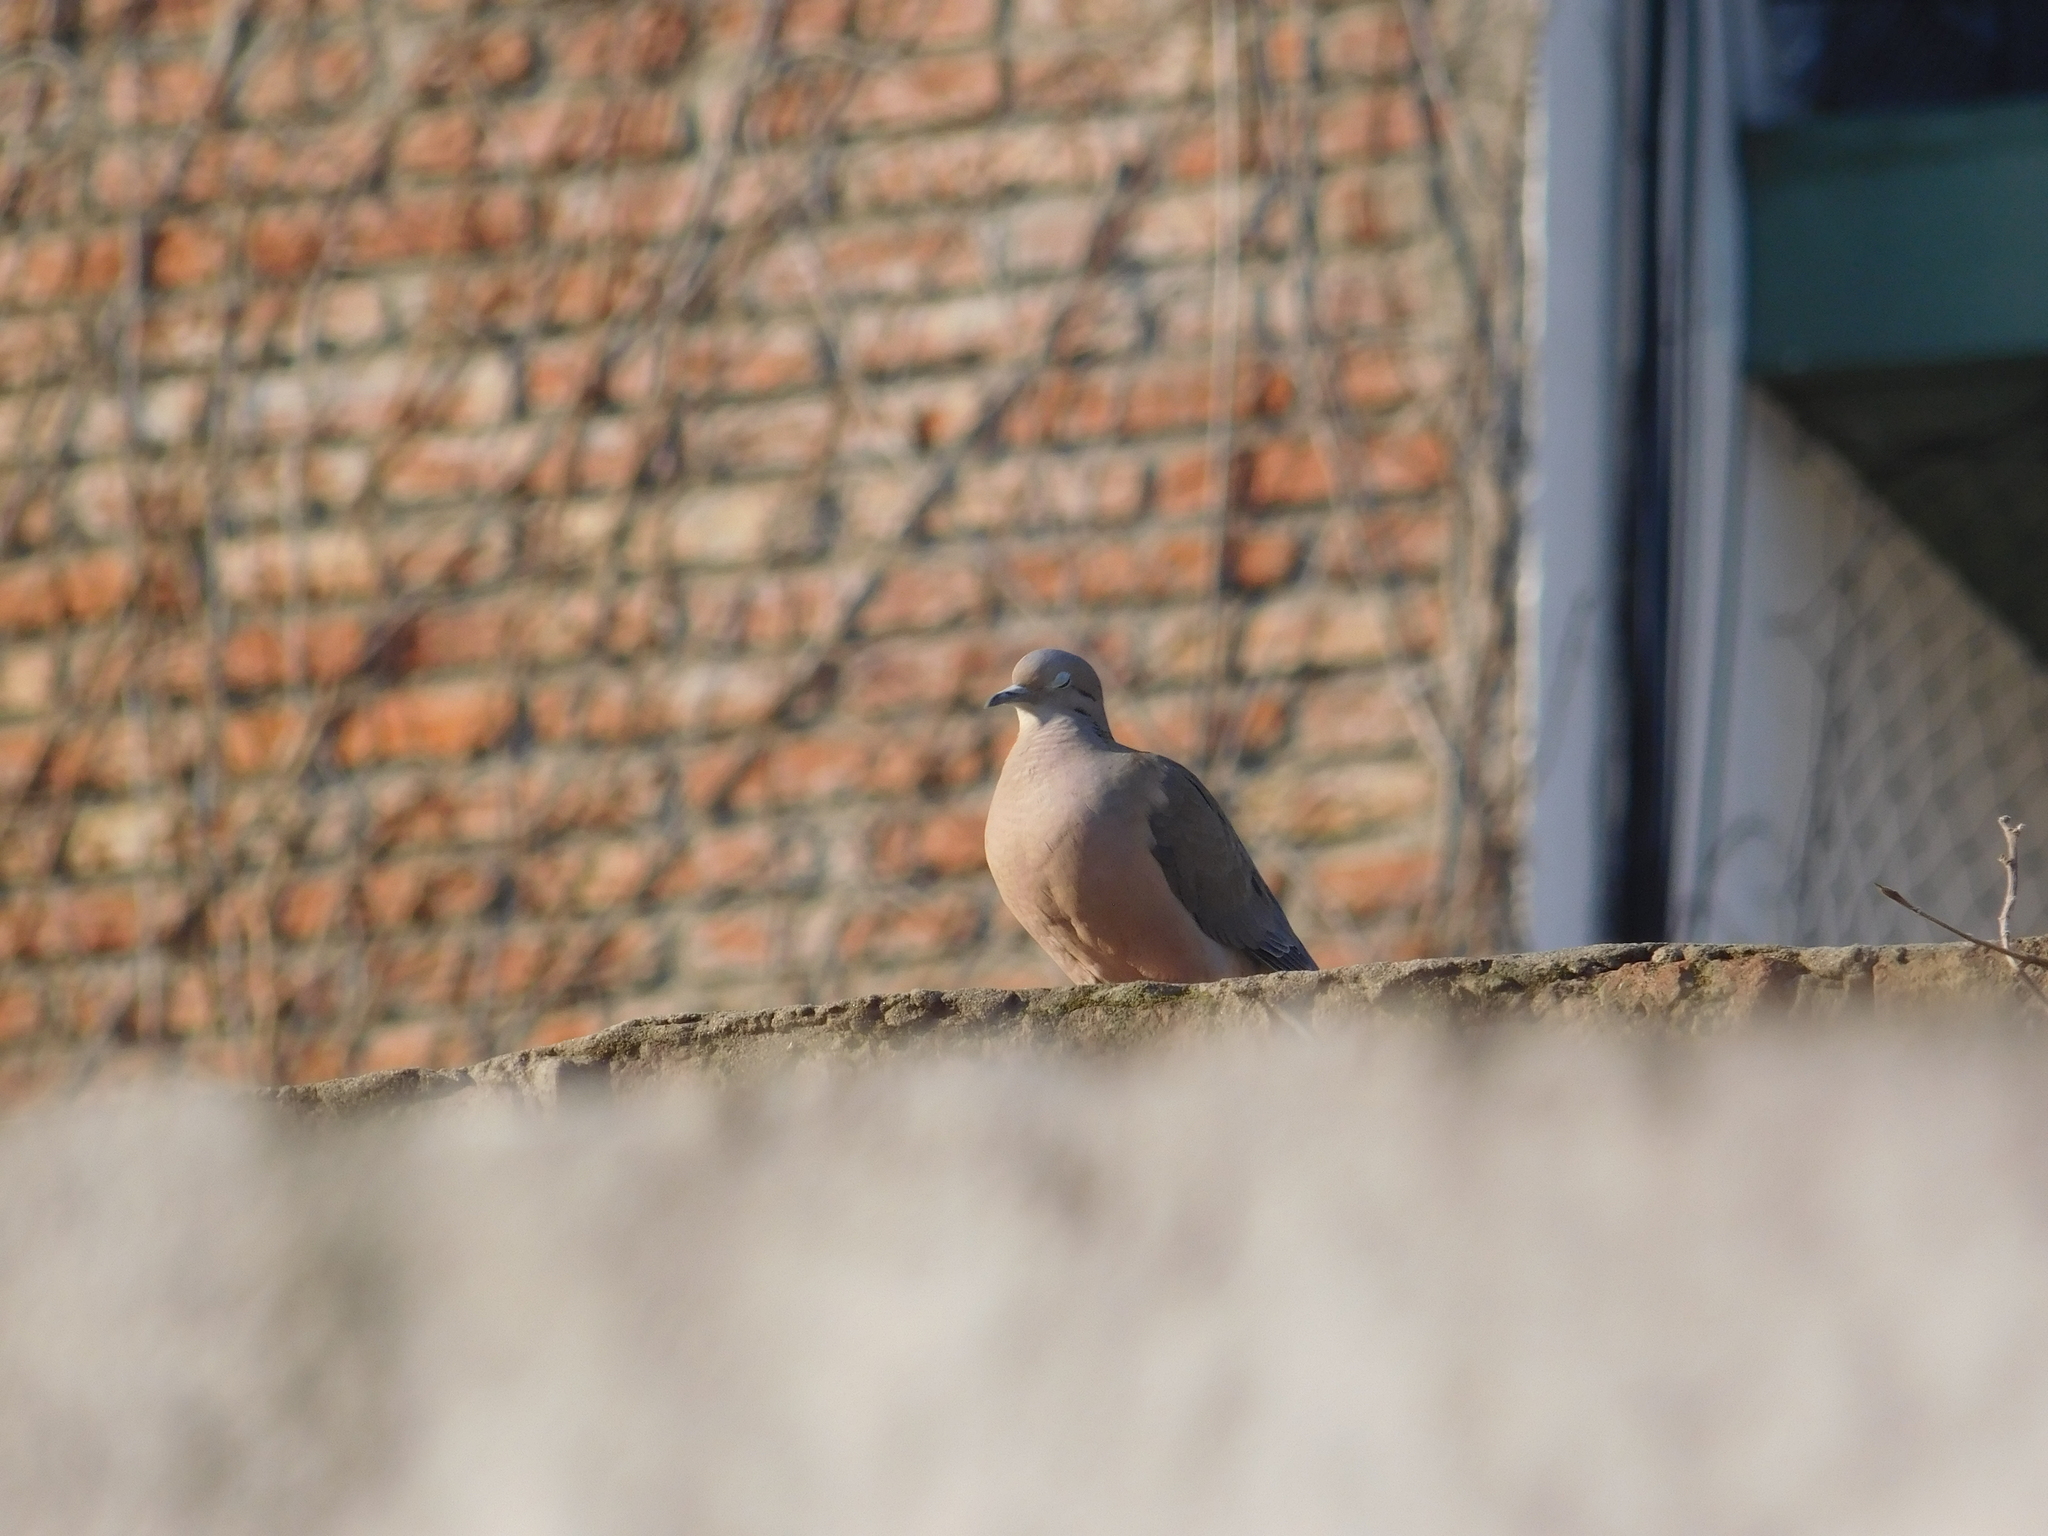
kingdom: Animalia
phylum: Chordata
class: Aves
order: Columbiformes
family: Columbidae
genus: Zenaida
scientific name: Zenaida auriculata
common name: Eared dove
